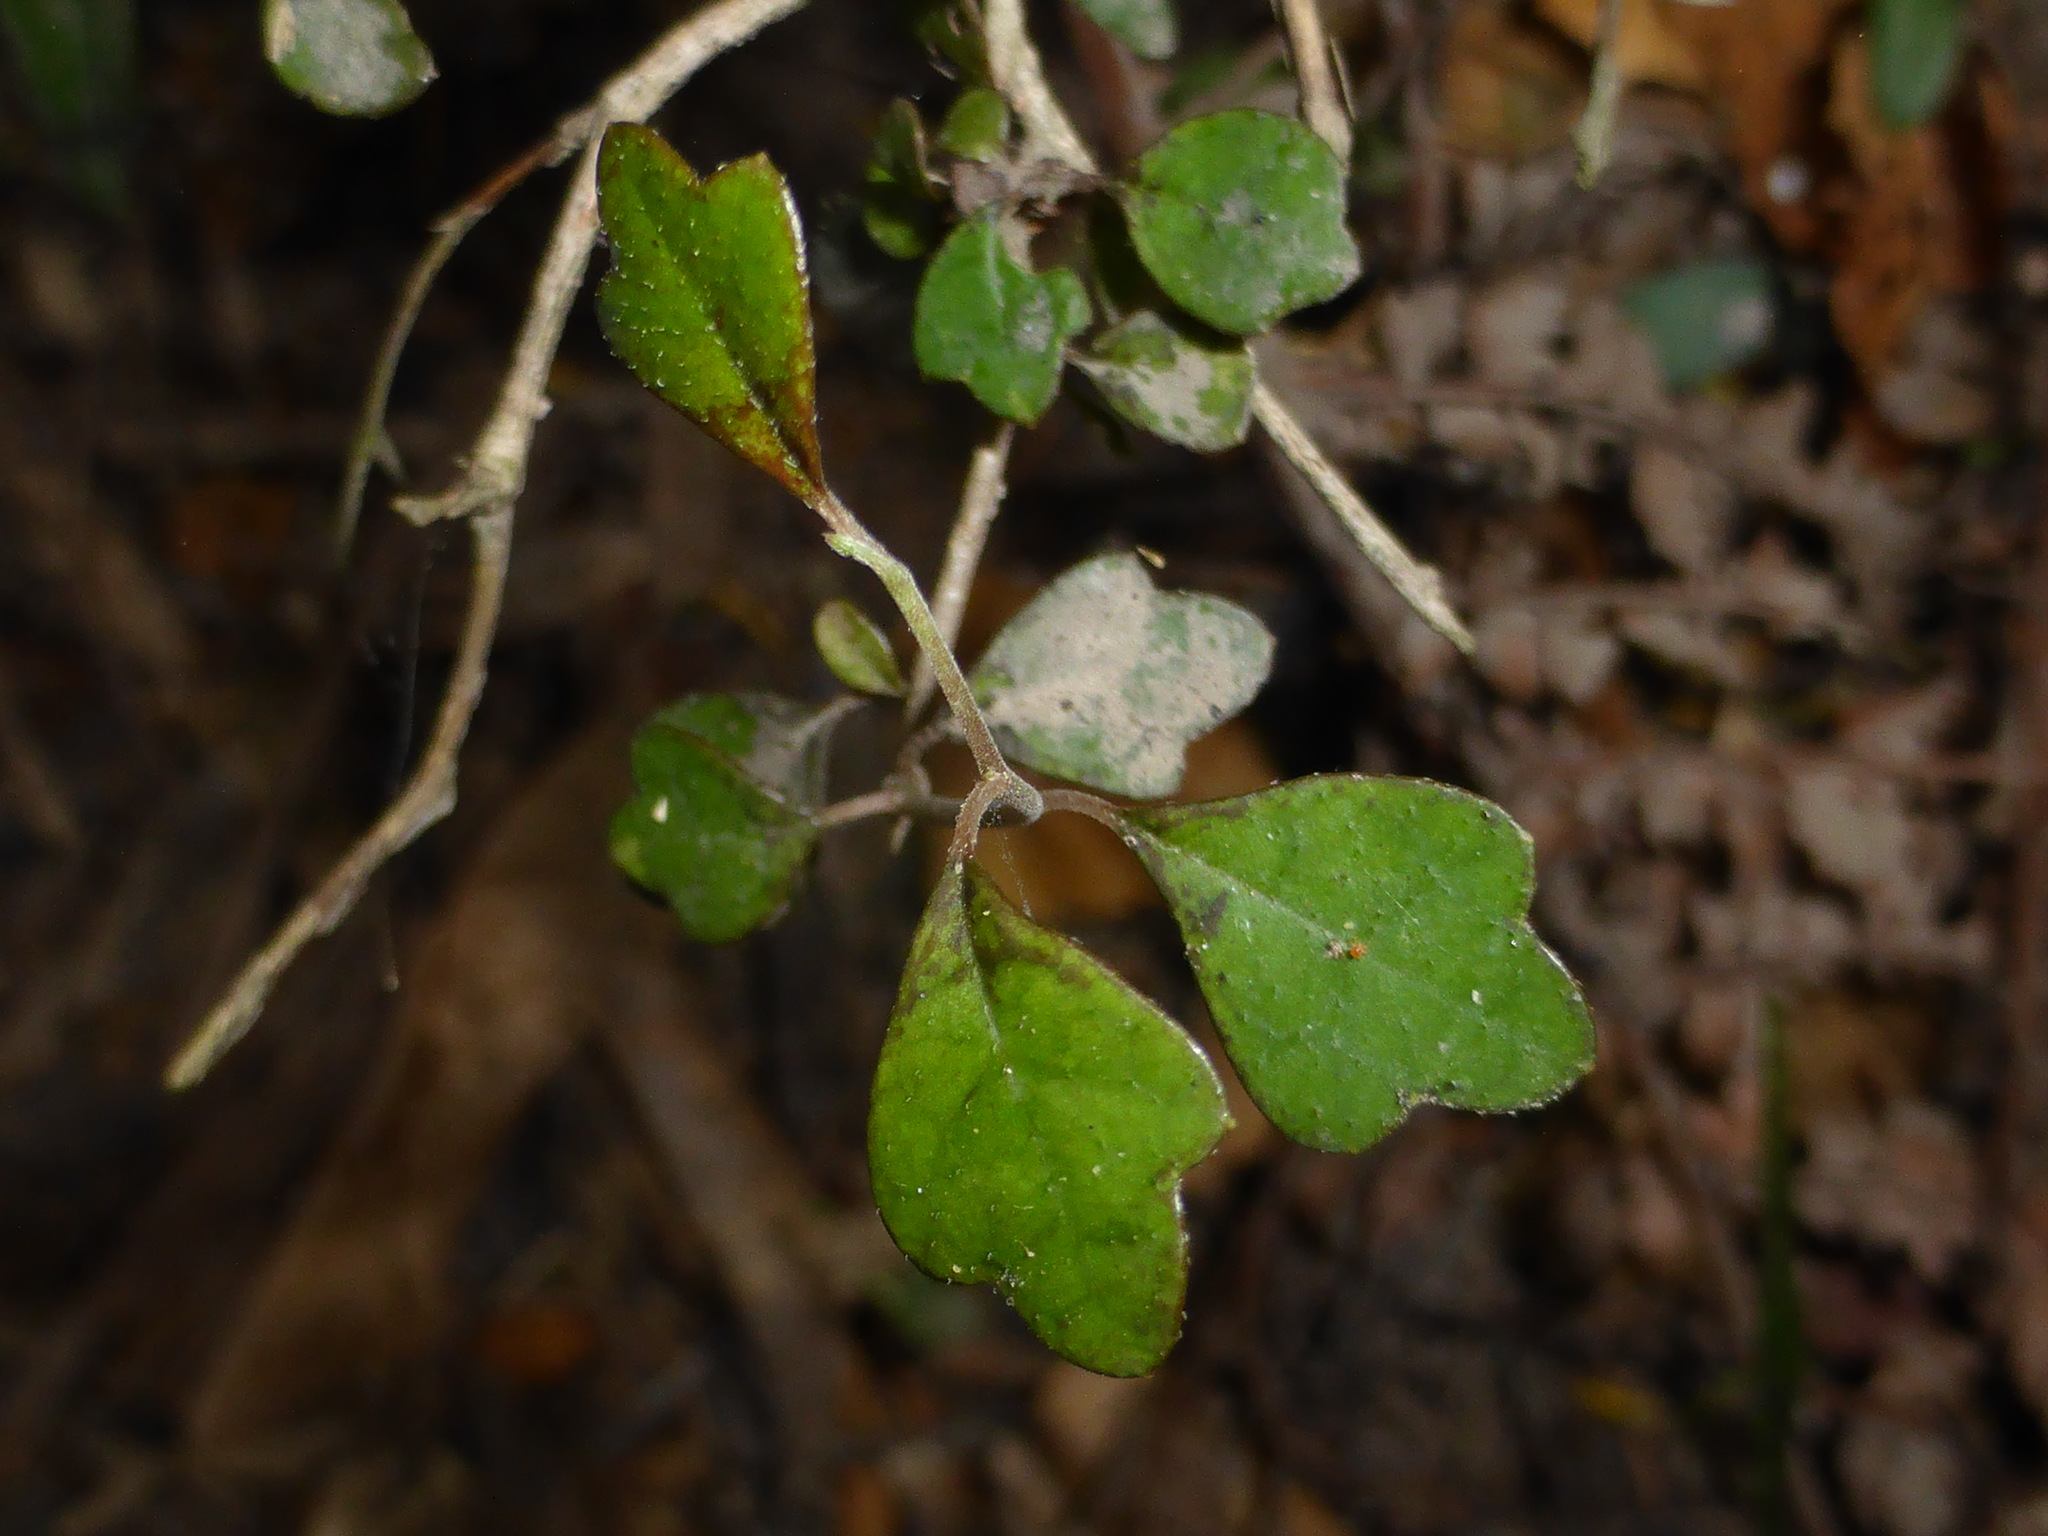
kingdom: Plantae
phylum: Tracheophyta
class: Magnoliopsida
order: Apiales
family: Pennantiaceae
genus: Pennantia
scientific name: Pennantia corymbosa
